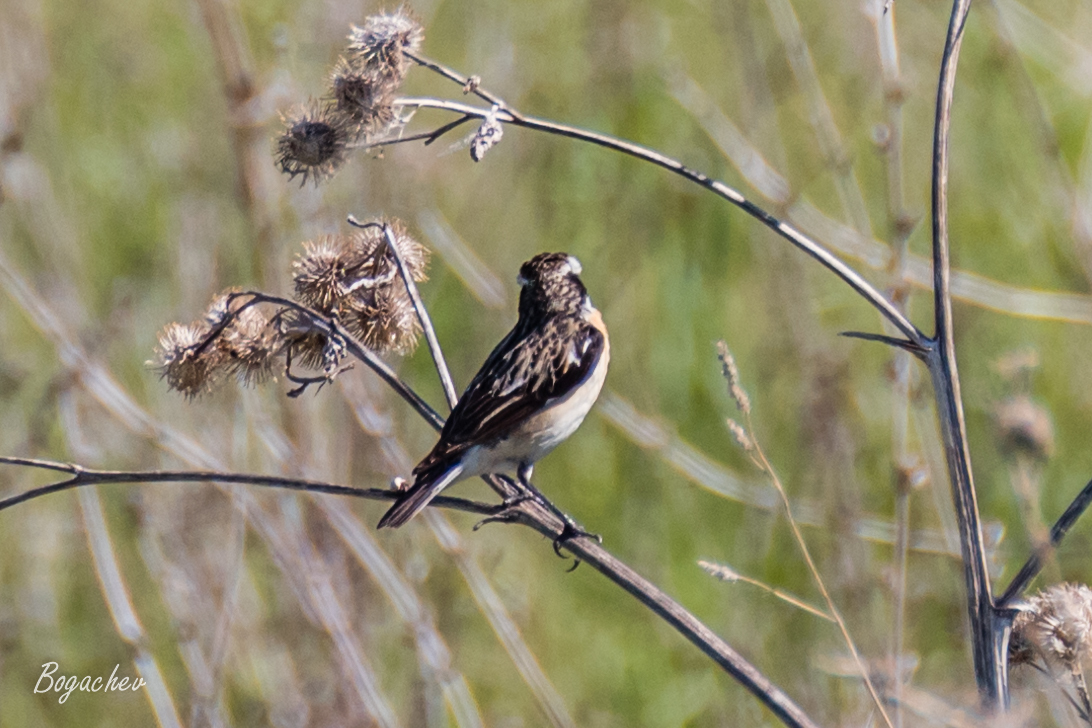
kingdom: Animalia
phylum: Chordata
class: Aves
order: Passeriformes
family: Muscicapidae
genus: Saxicola
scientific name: Saxicola rubetra
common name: Whinchat
